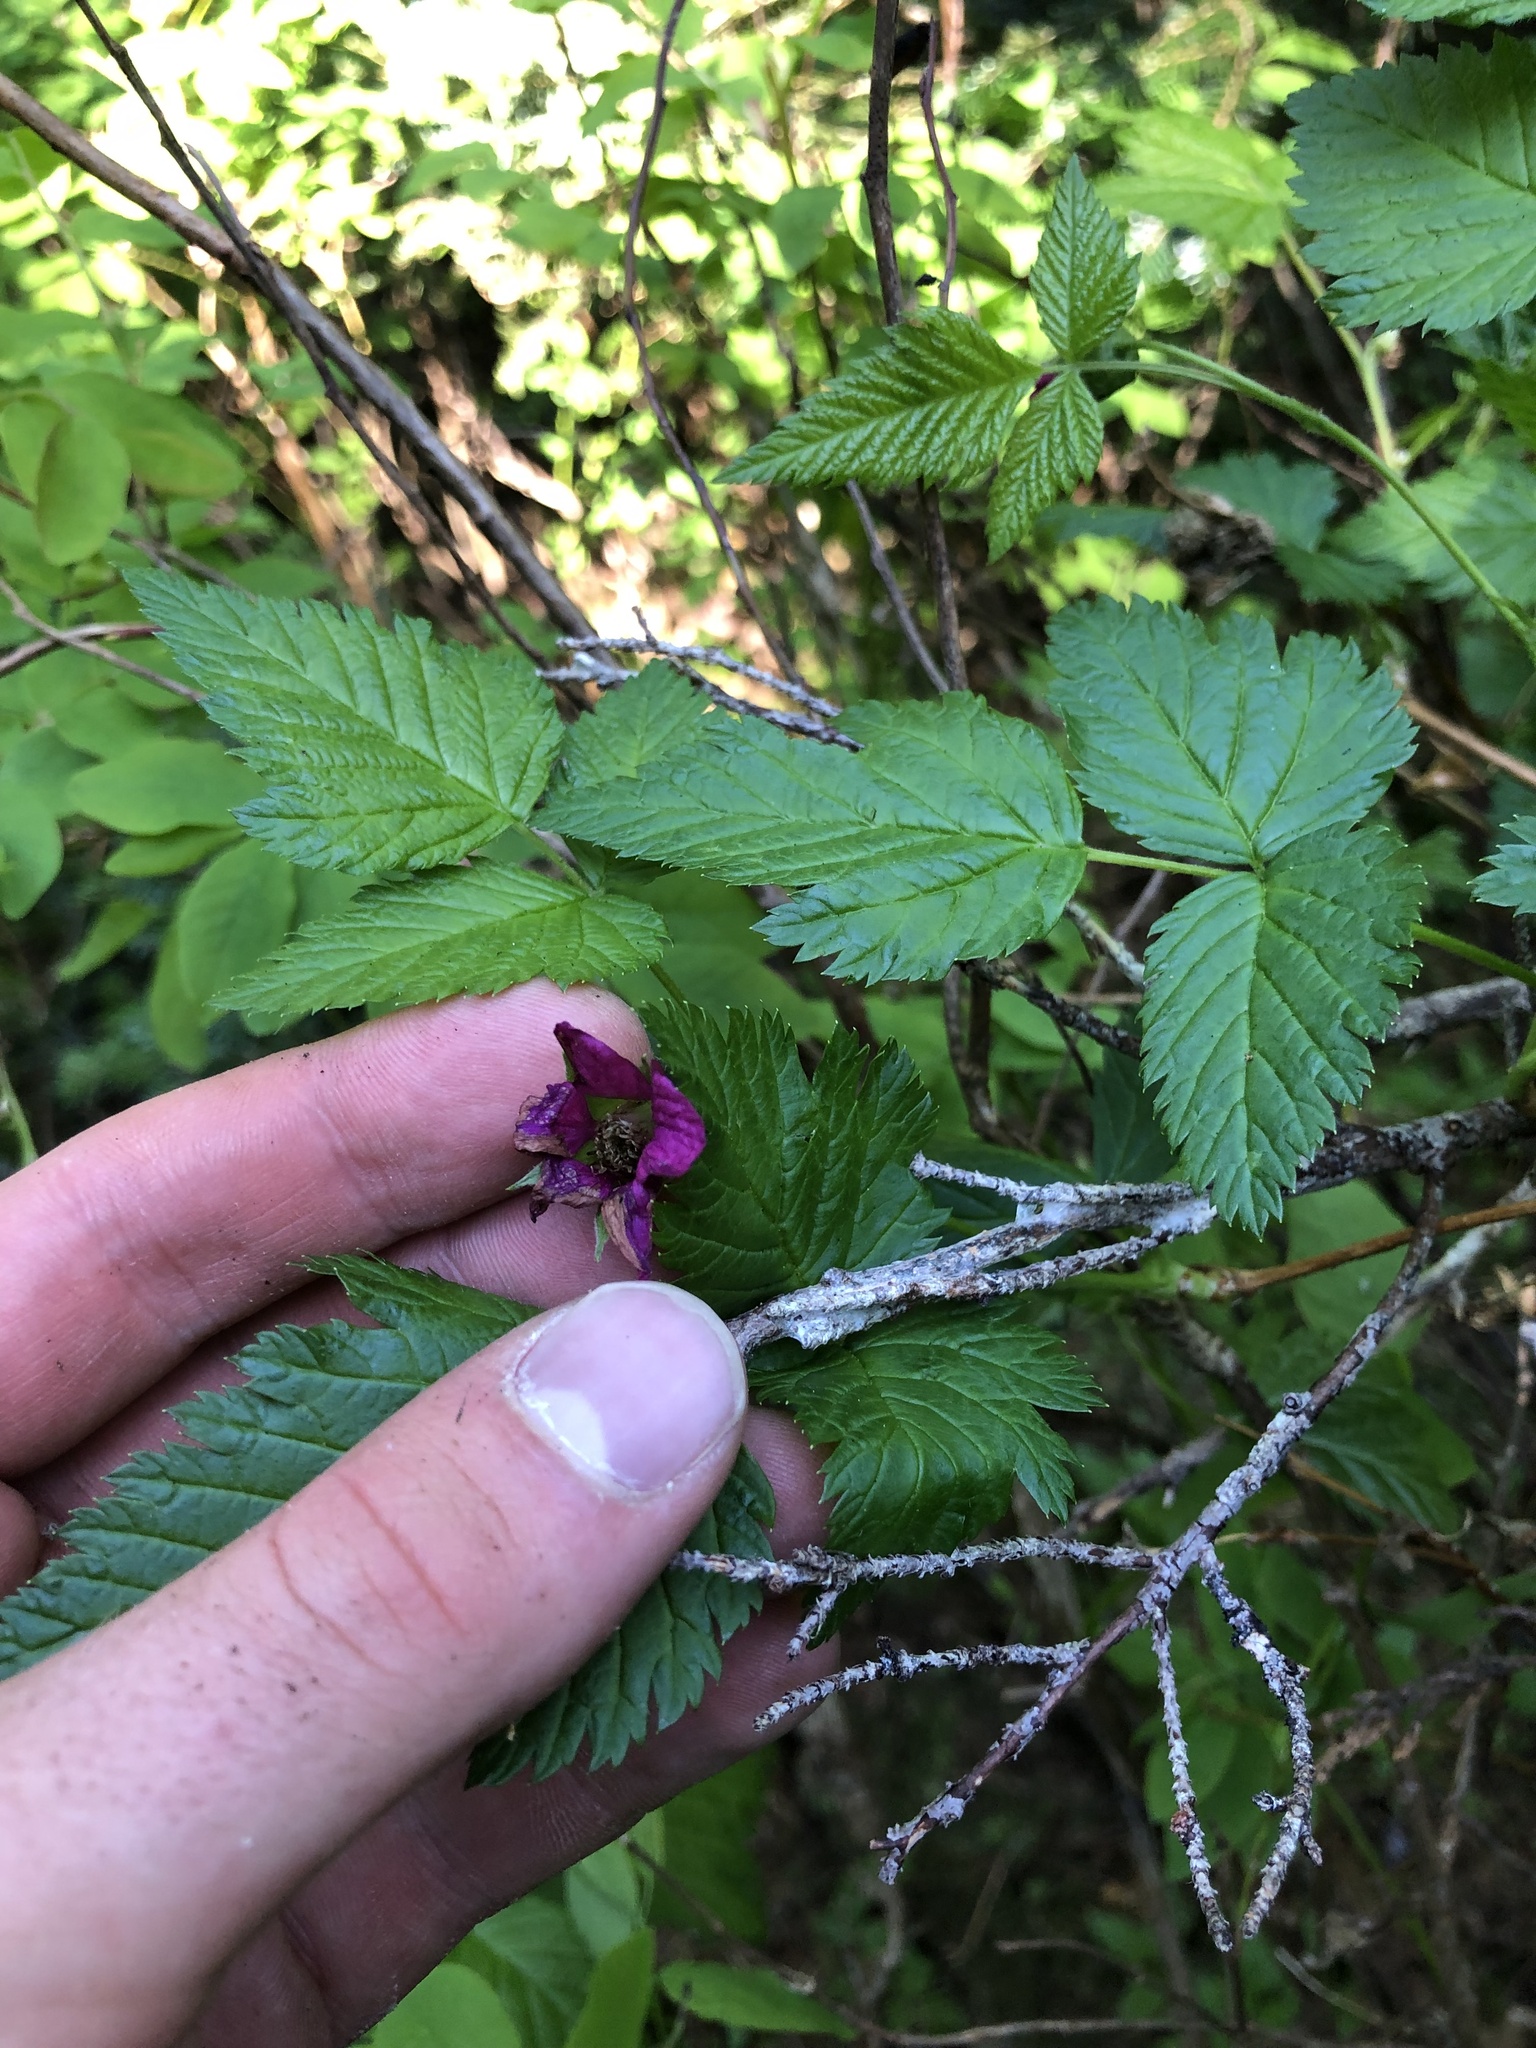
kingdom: Plantae
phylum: Tracheophyta
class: Magnoliopsida
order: Rosales
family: Rosaceae
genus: Rubus
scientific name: Rubus spectabilis
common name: Salmonberry
